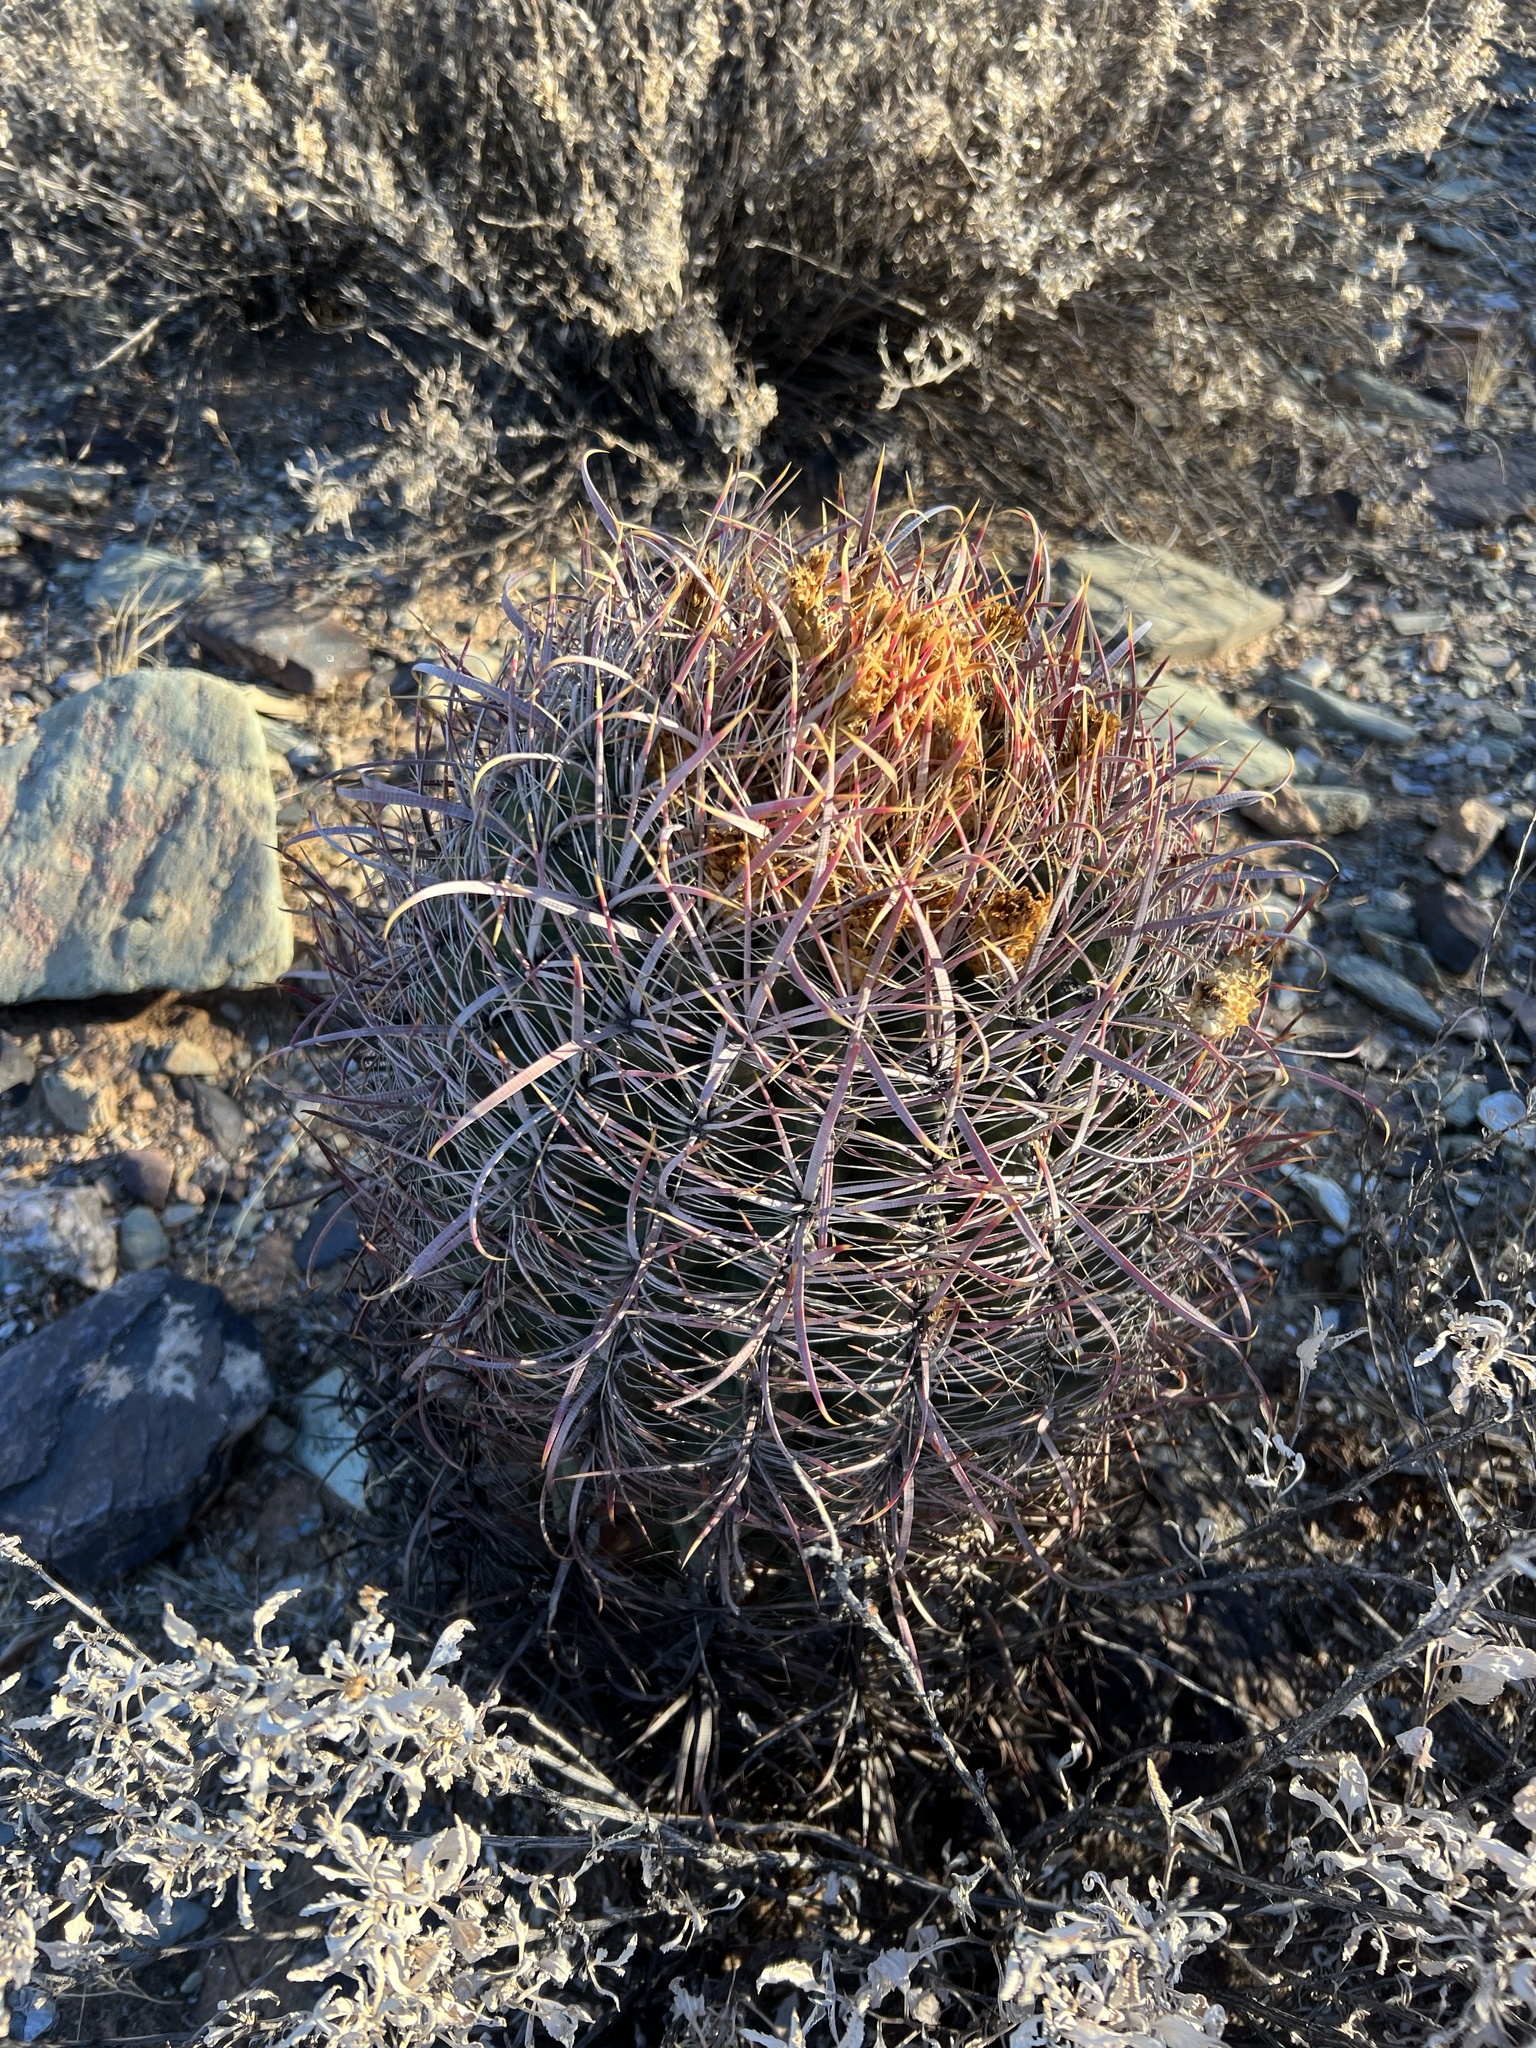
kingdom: Plantae
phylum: Tracheophyta
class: Magnoliopsida
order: Caryophyllales
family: Cactaceae
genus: Ferocactus
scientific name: Ferocactus cylindraceus
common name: California barrel cactus
